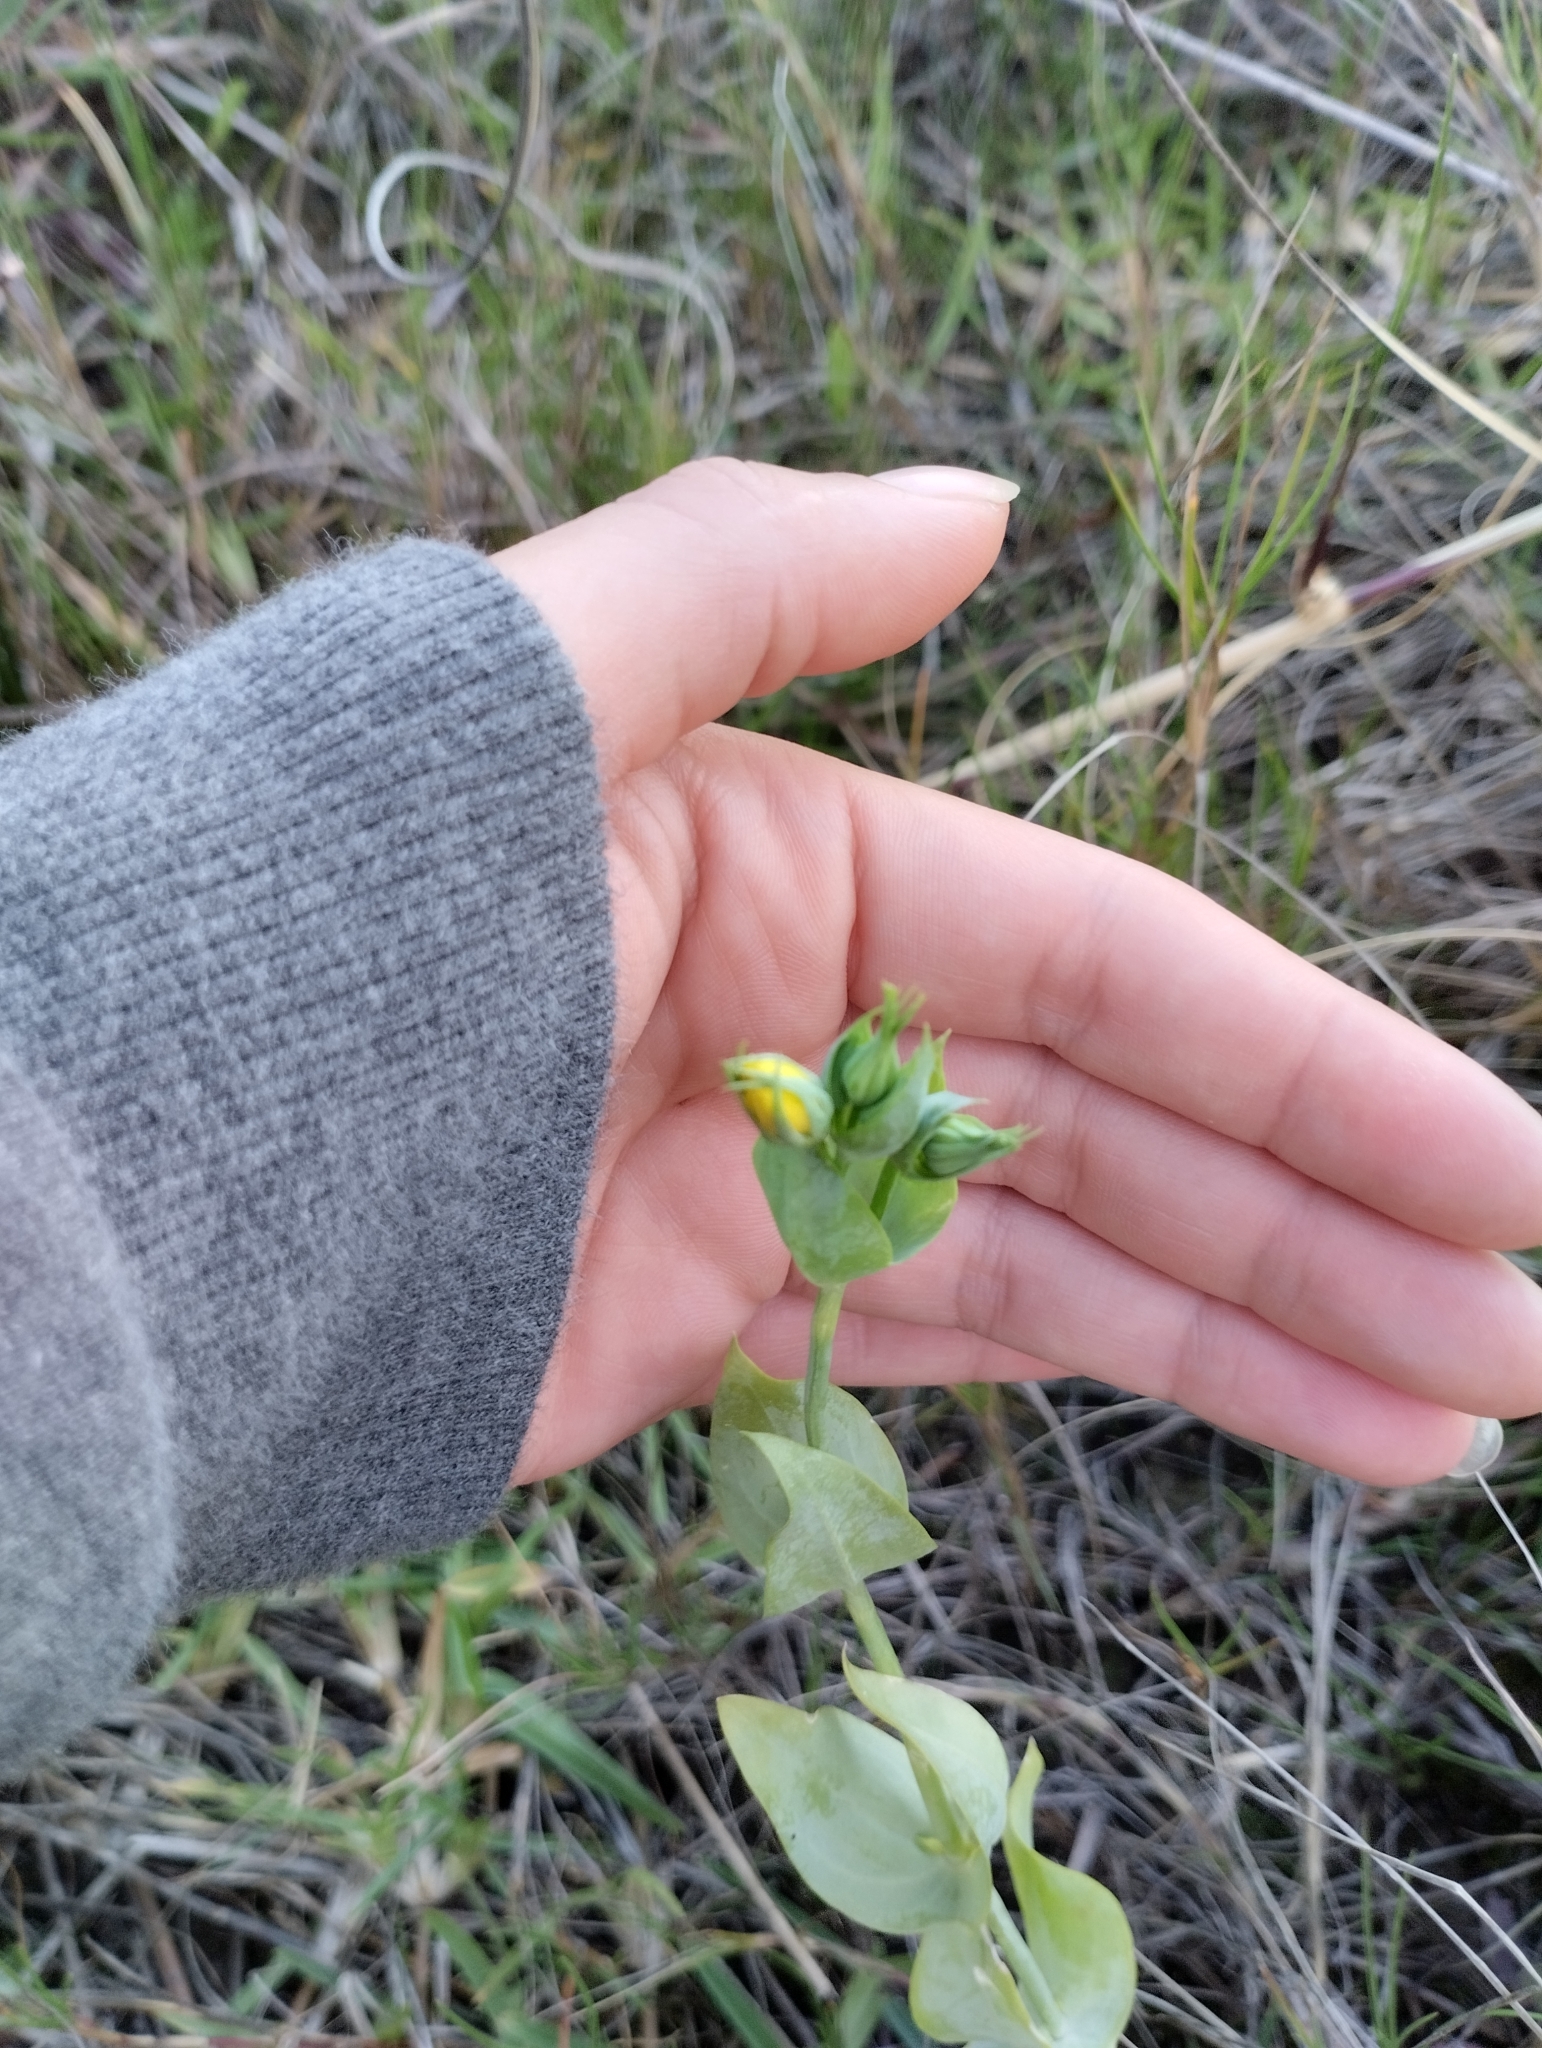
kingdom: Plantae
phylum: Tracheophyta
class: Magnoliopsida
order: Gentianales
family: Gentianaceae
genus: Blackstonia
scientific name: Blackstonia perfoliata
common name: Yellow-wort
